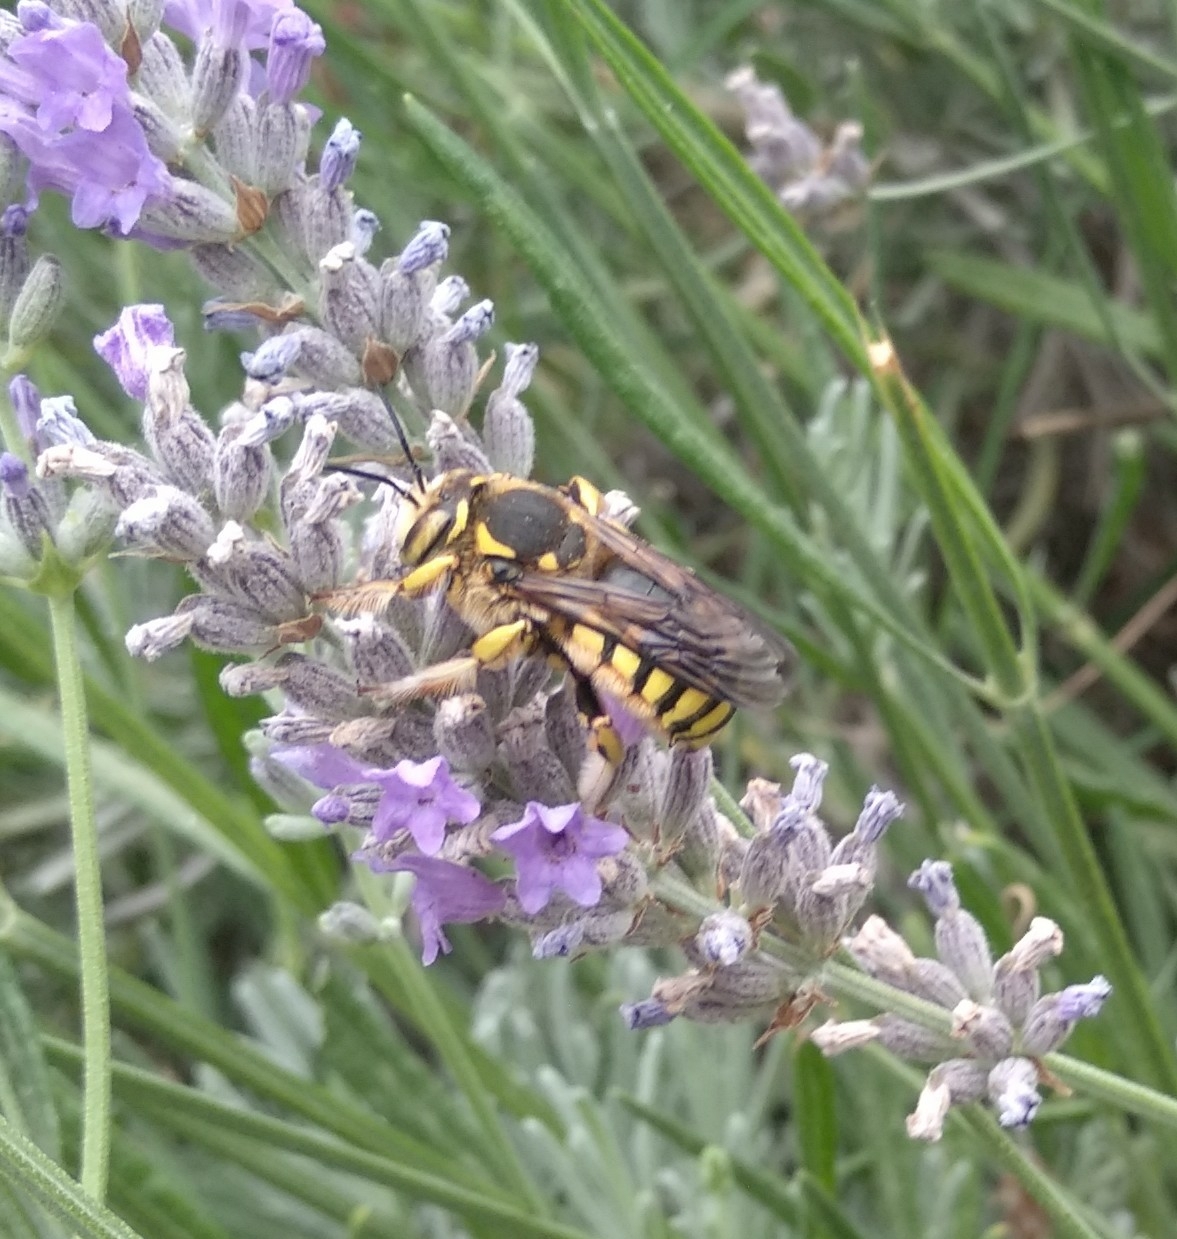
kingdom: Animalia
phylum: Arthropoda
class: Insecta
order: Hymenoptera
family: Megachilidae
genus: Anthidium
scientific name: Anthidium florentinum
